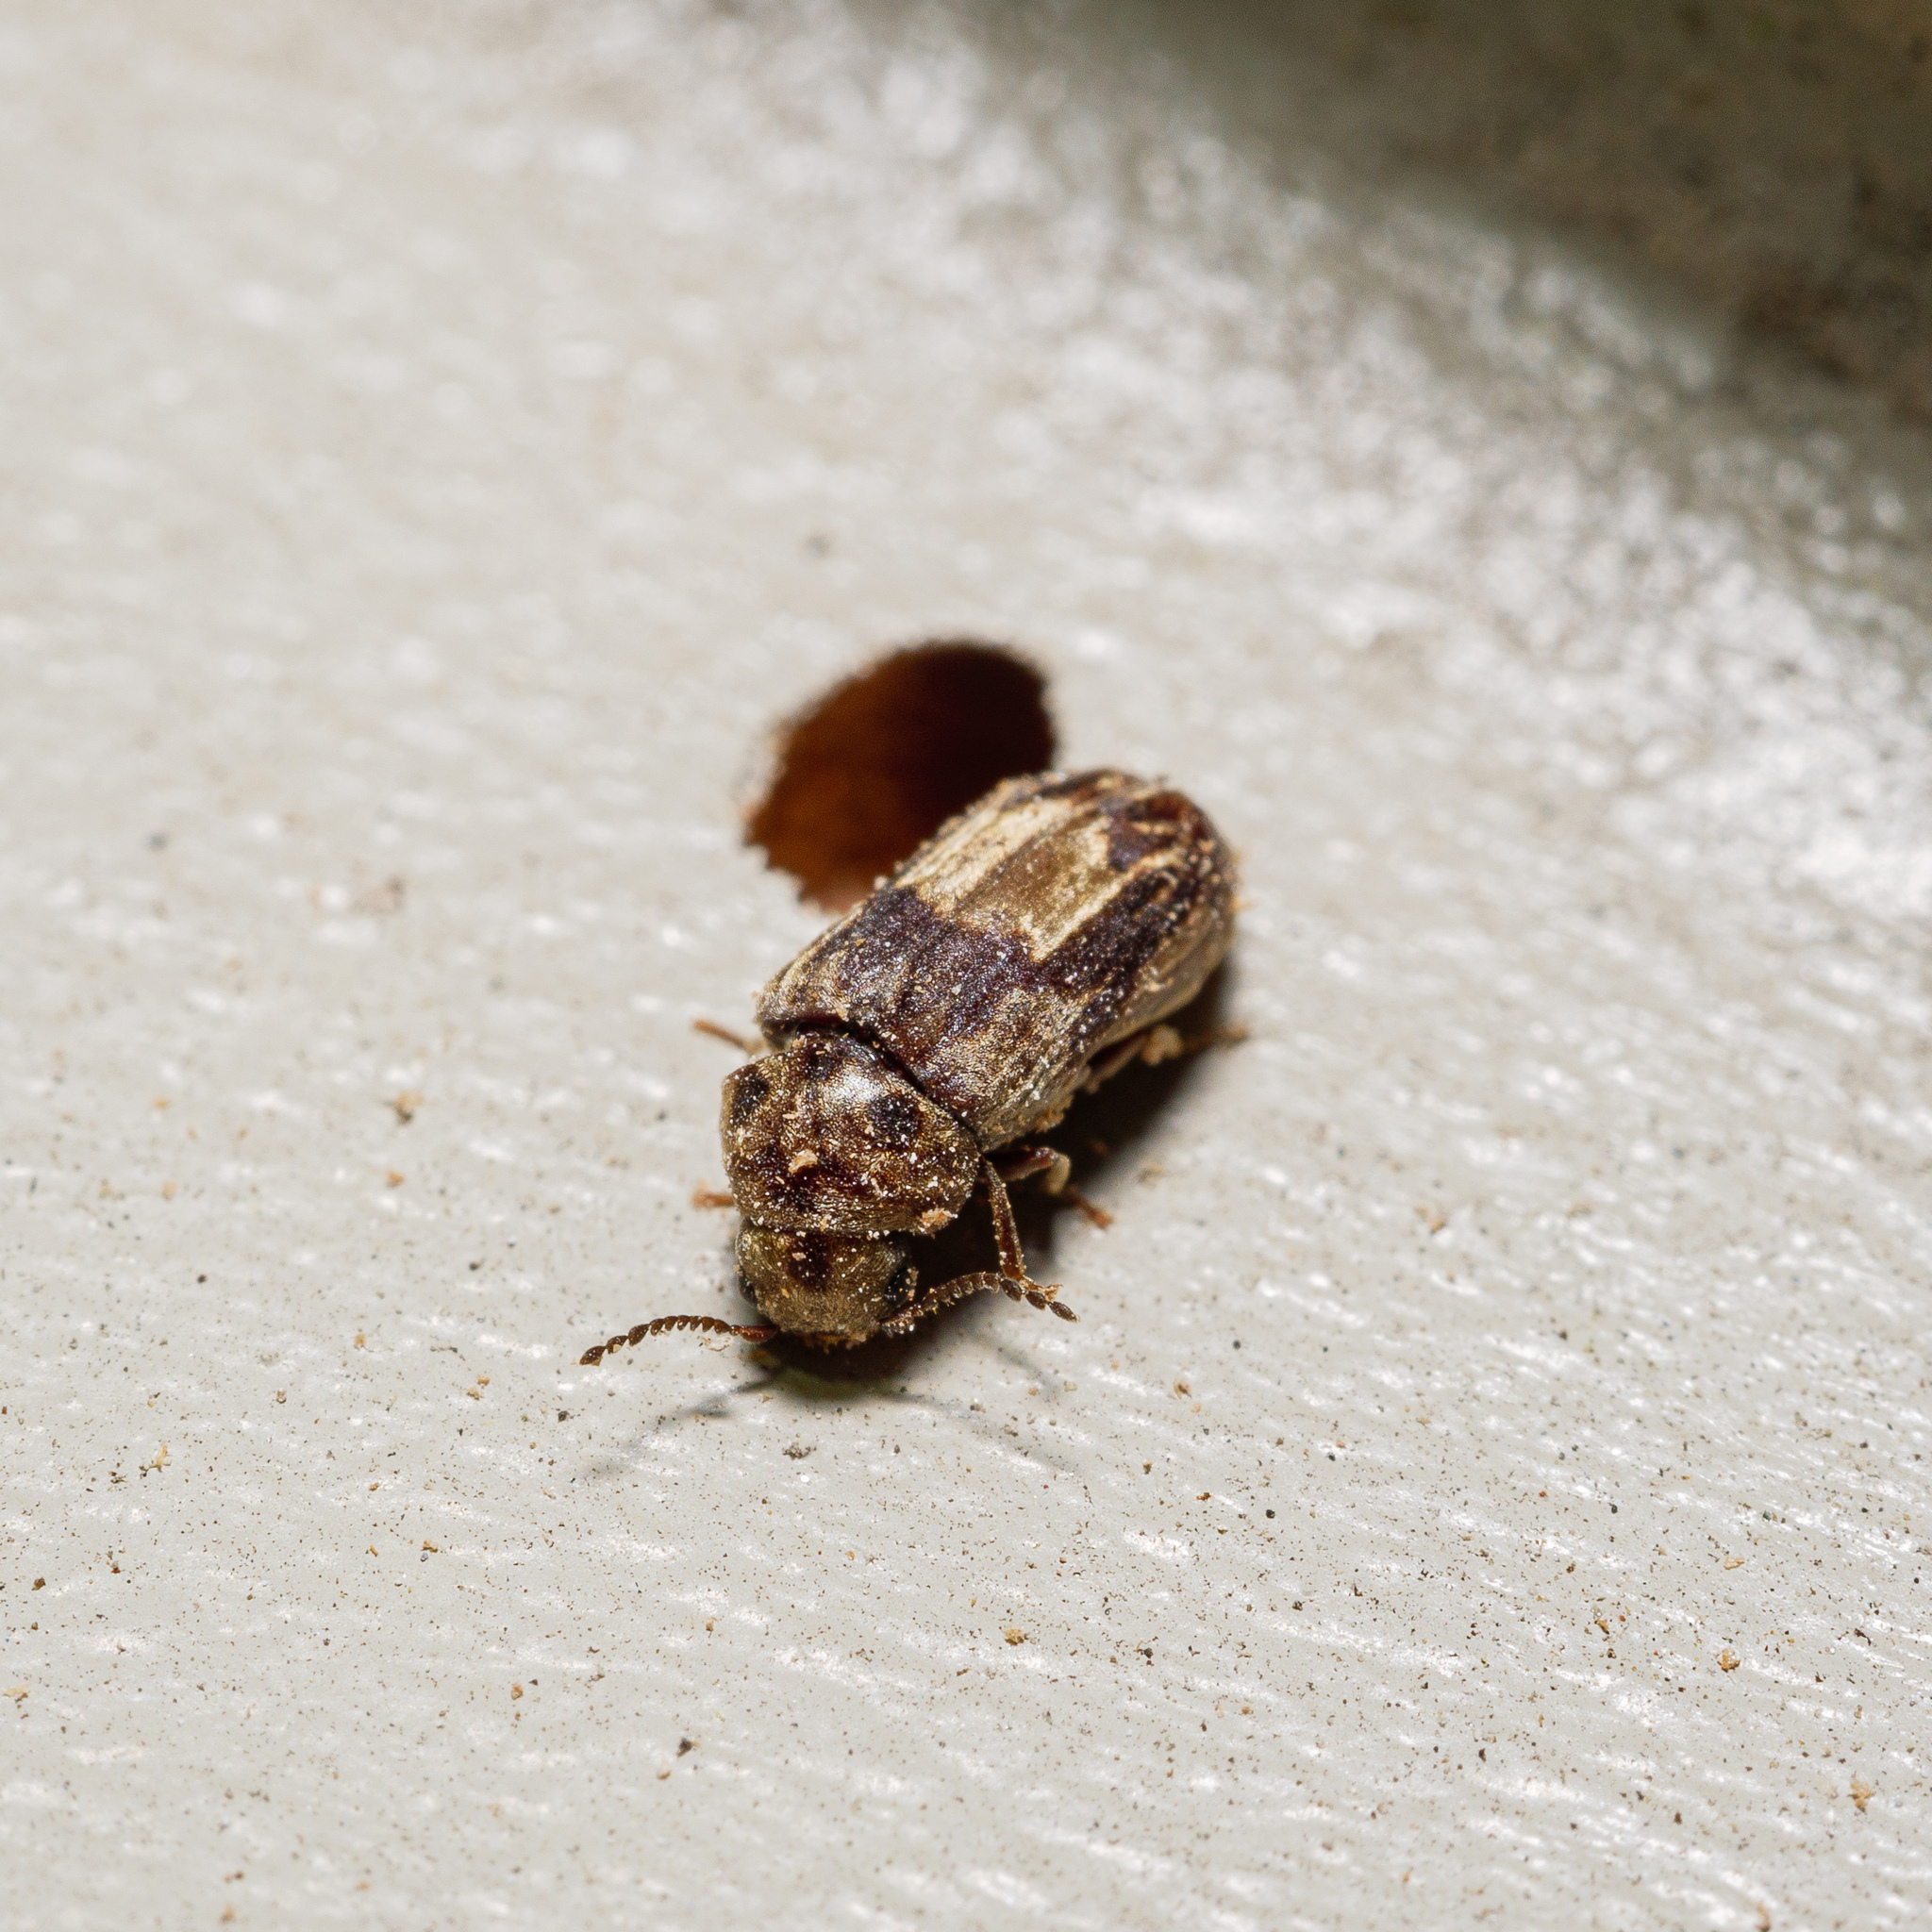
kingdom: Animalia
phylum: Arthropoda
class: Insecta
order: Coleoptera
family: Ptinidae
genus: Leanobium
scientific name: Leanobium
